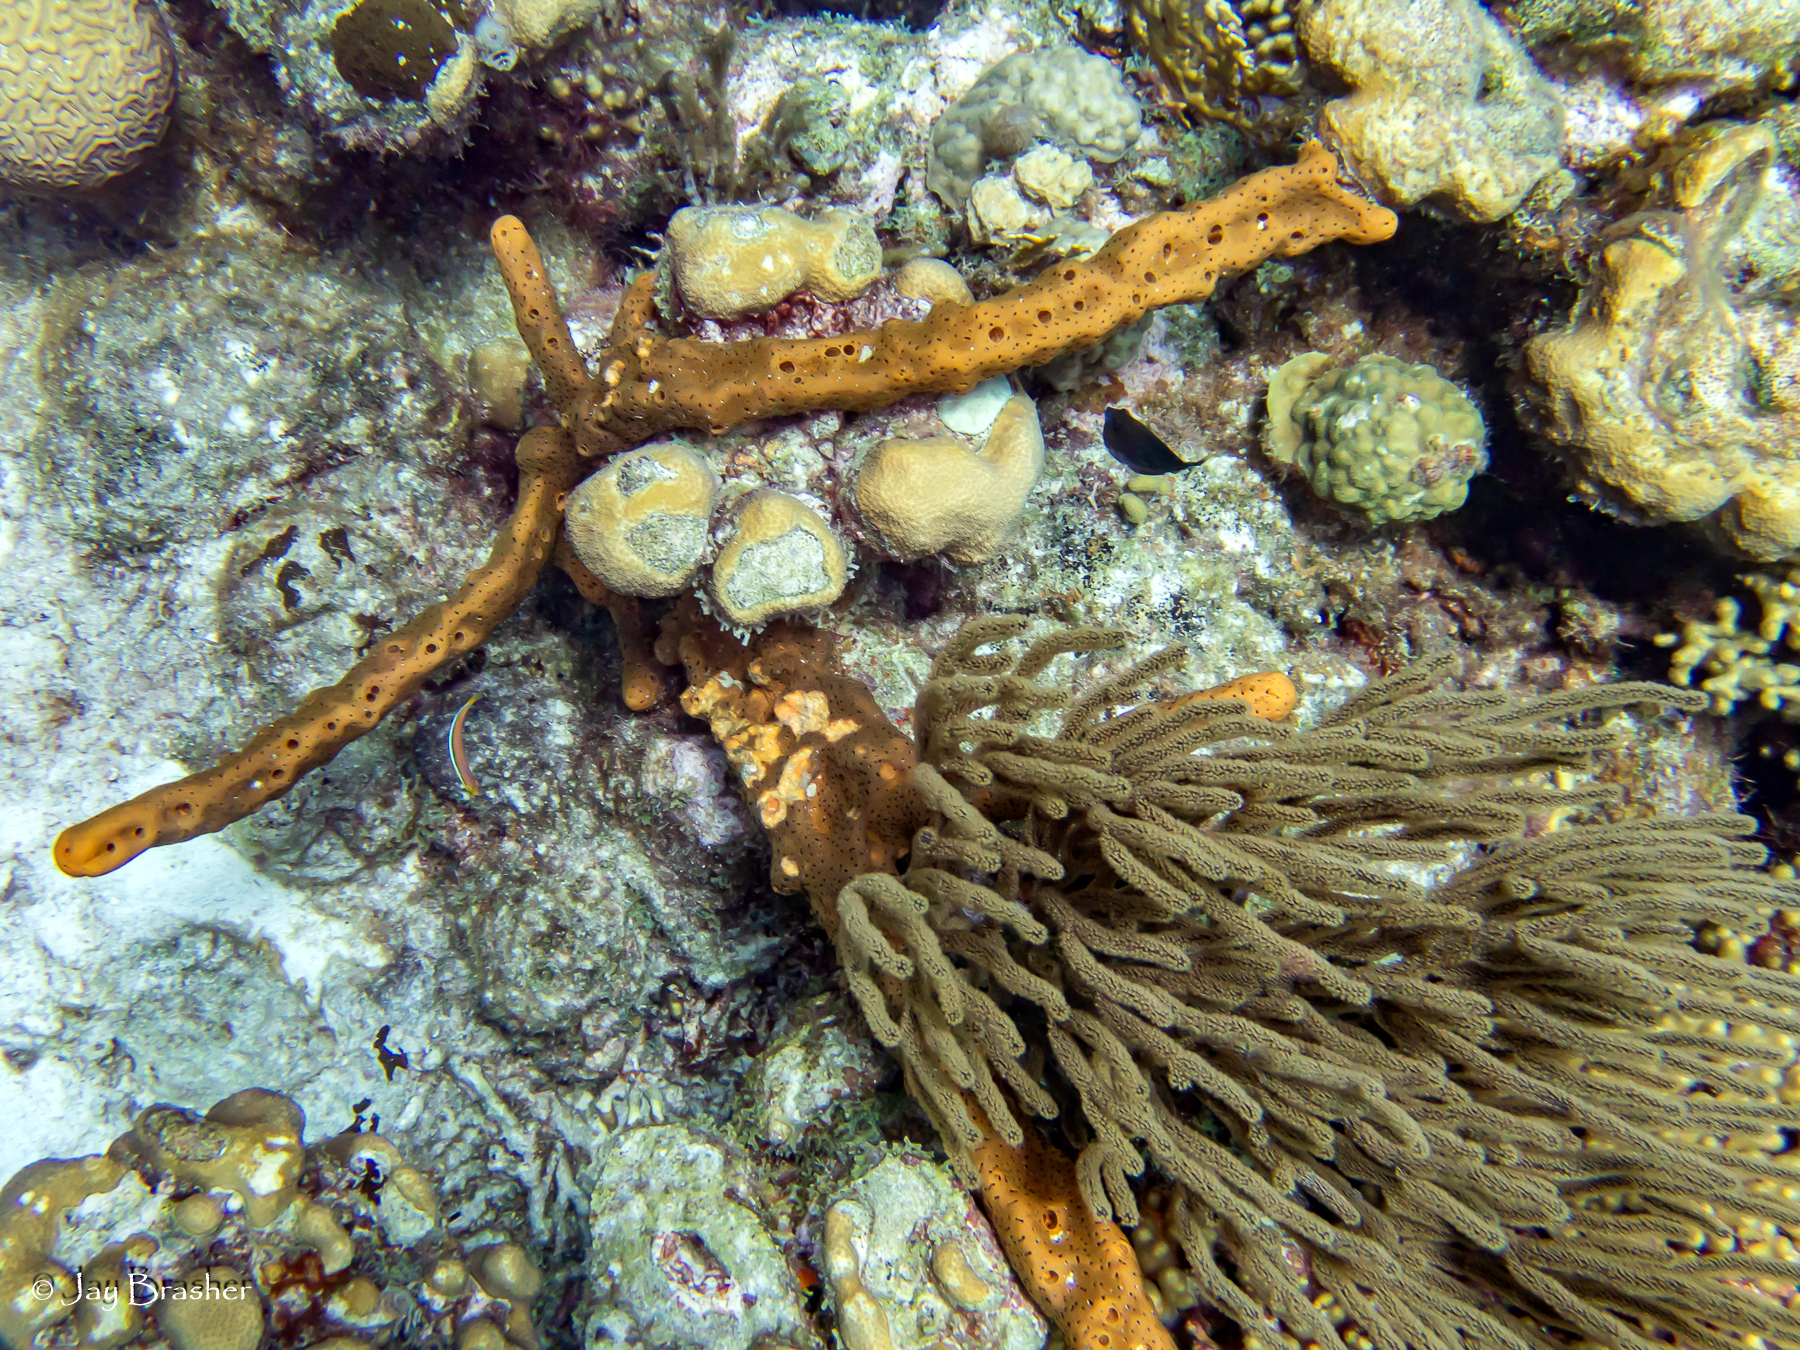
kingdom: Animalia
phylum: Porifera
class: Demospongiae
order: Agelasida
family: Agelasidae
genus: Agelas
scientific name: Agelas conifera
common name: Brown tube sponge
